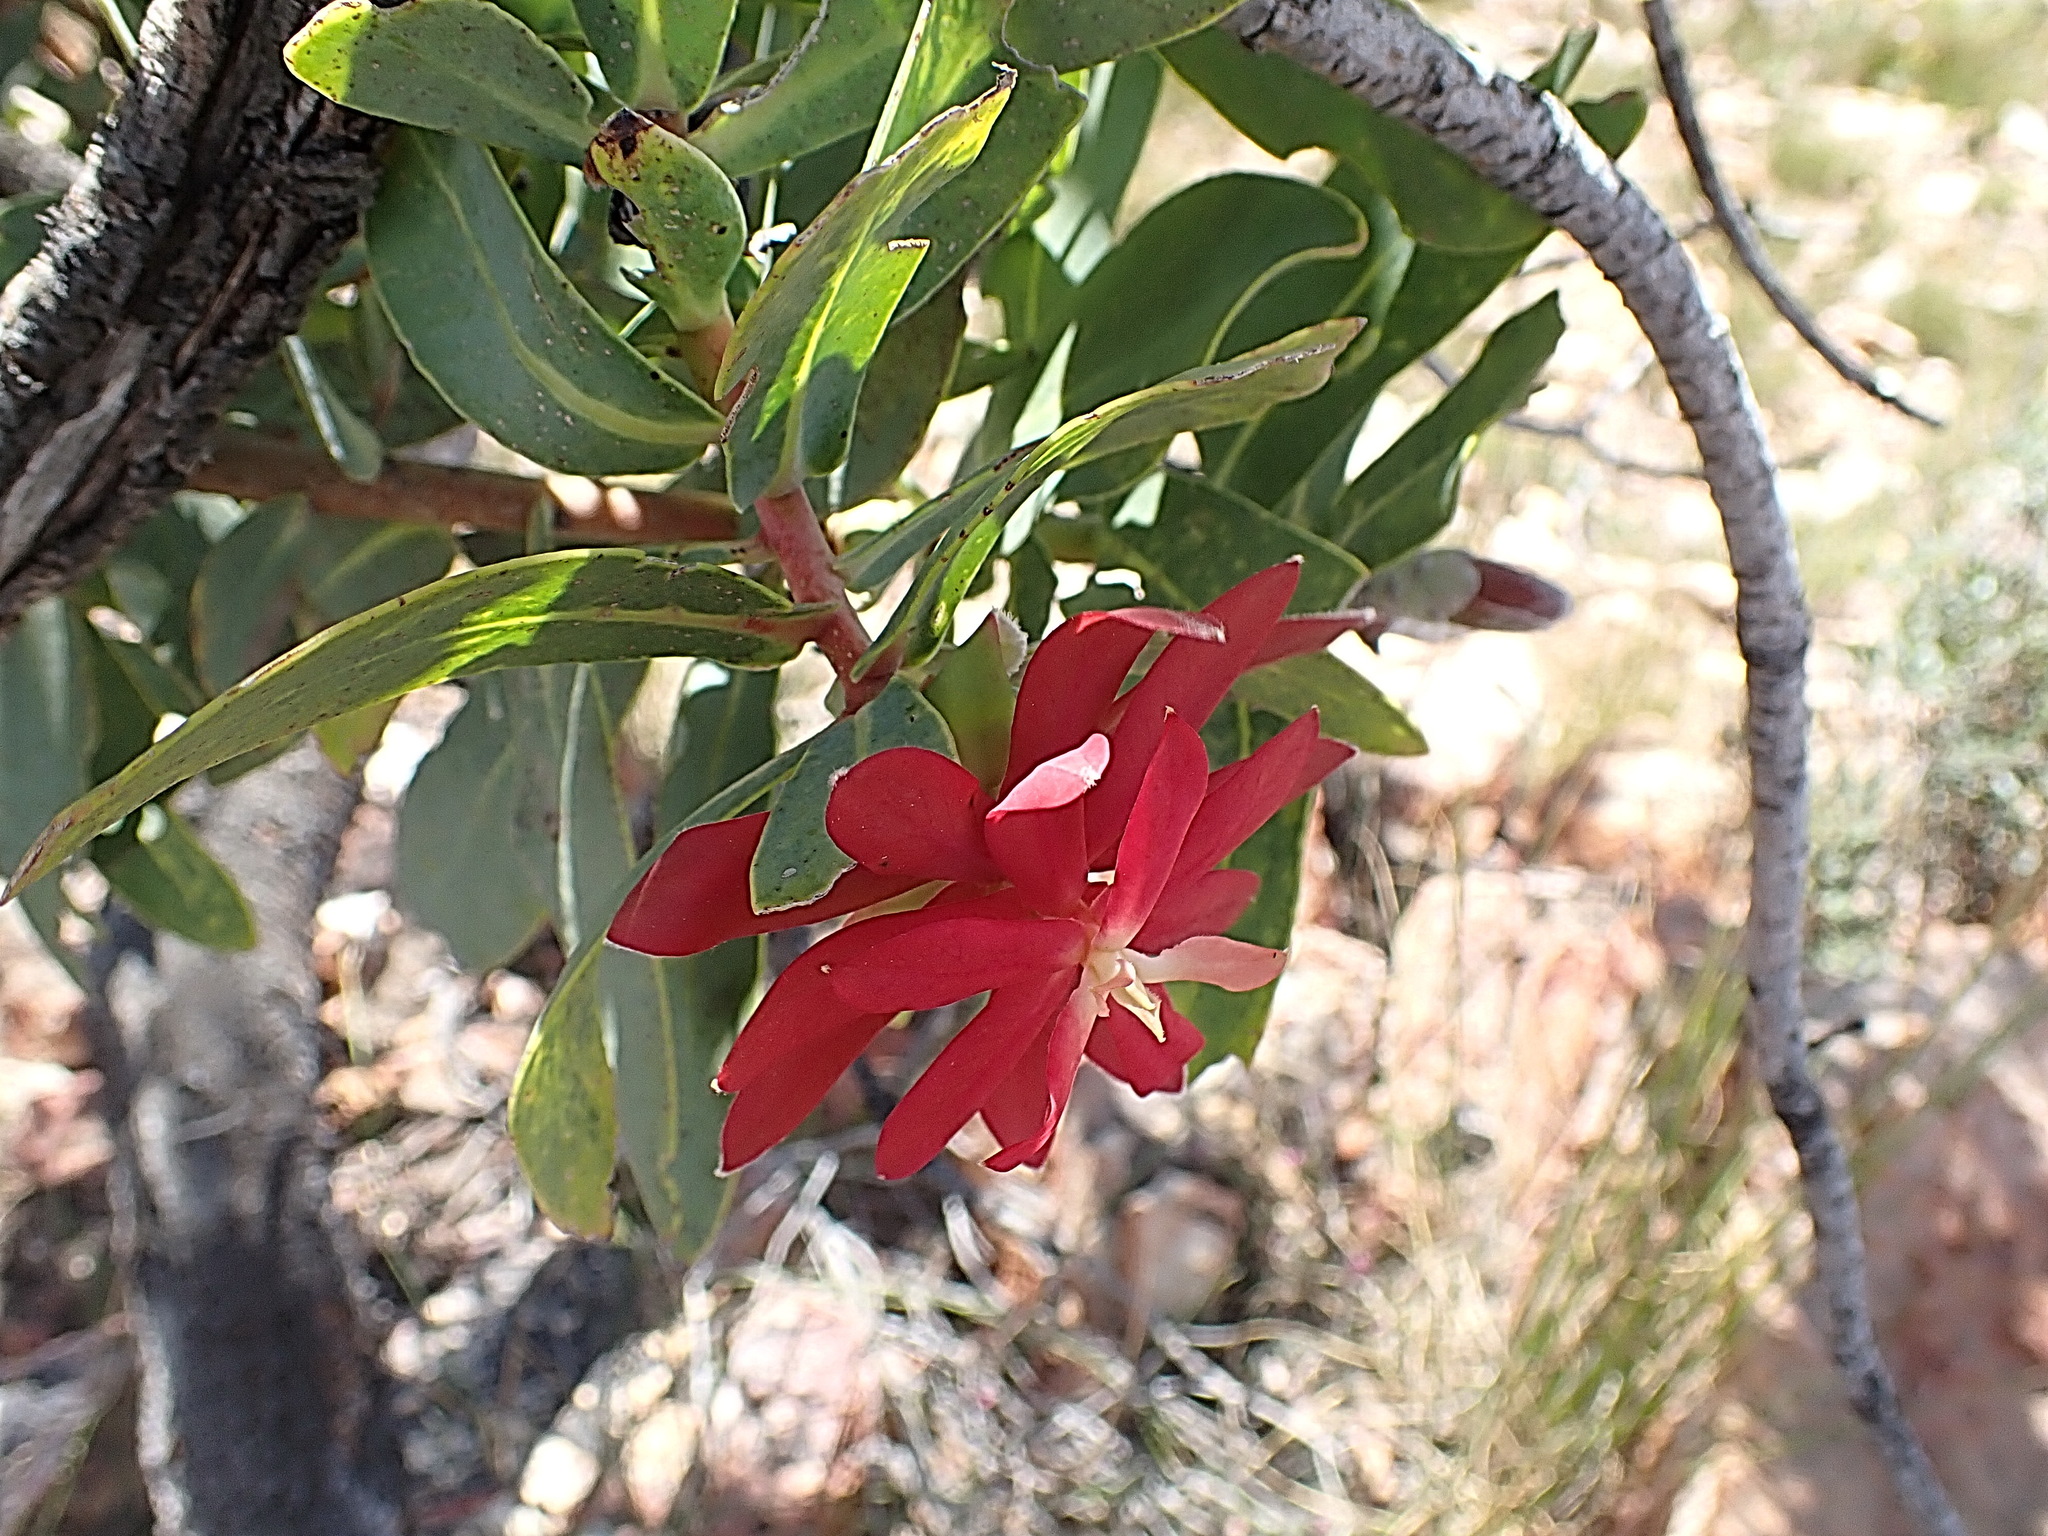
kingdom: Plantae
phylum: Tracheophyta
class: Magnoliopsida
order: Proteales
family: Proteaceae
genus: Protea
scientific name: Protea nitida
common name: Tree protea
